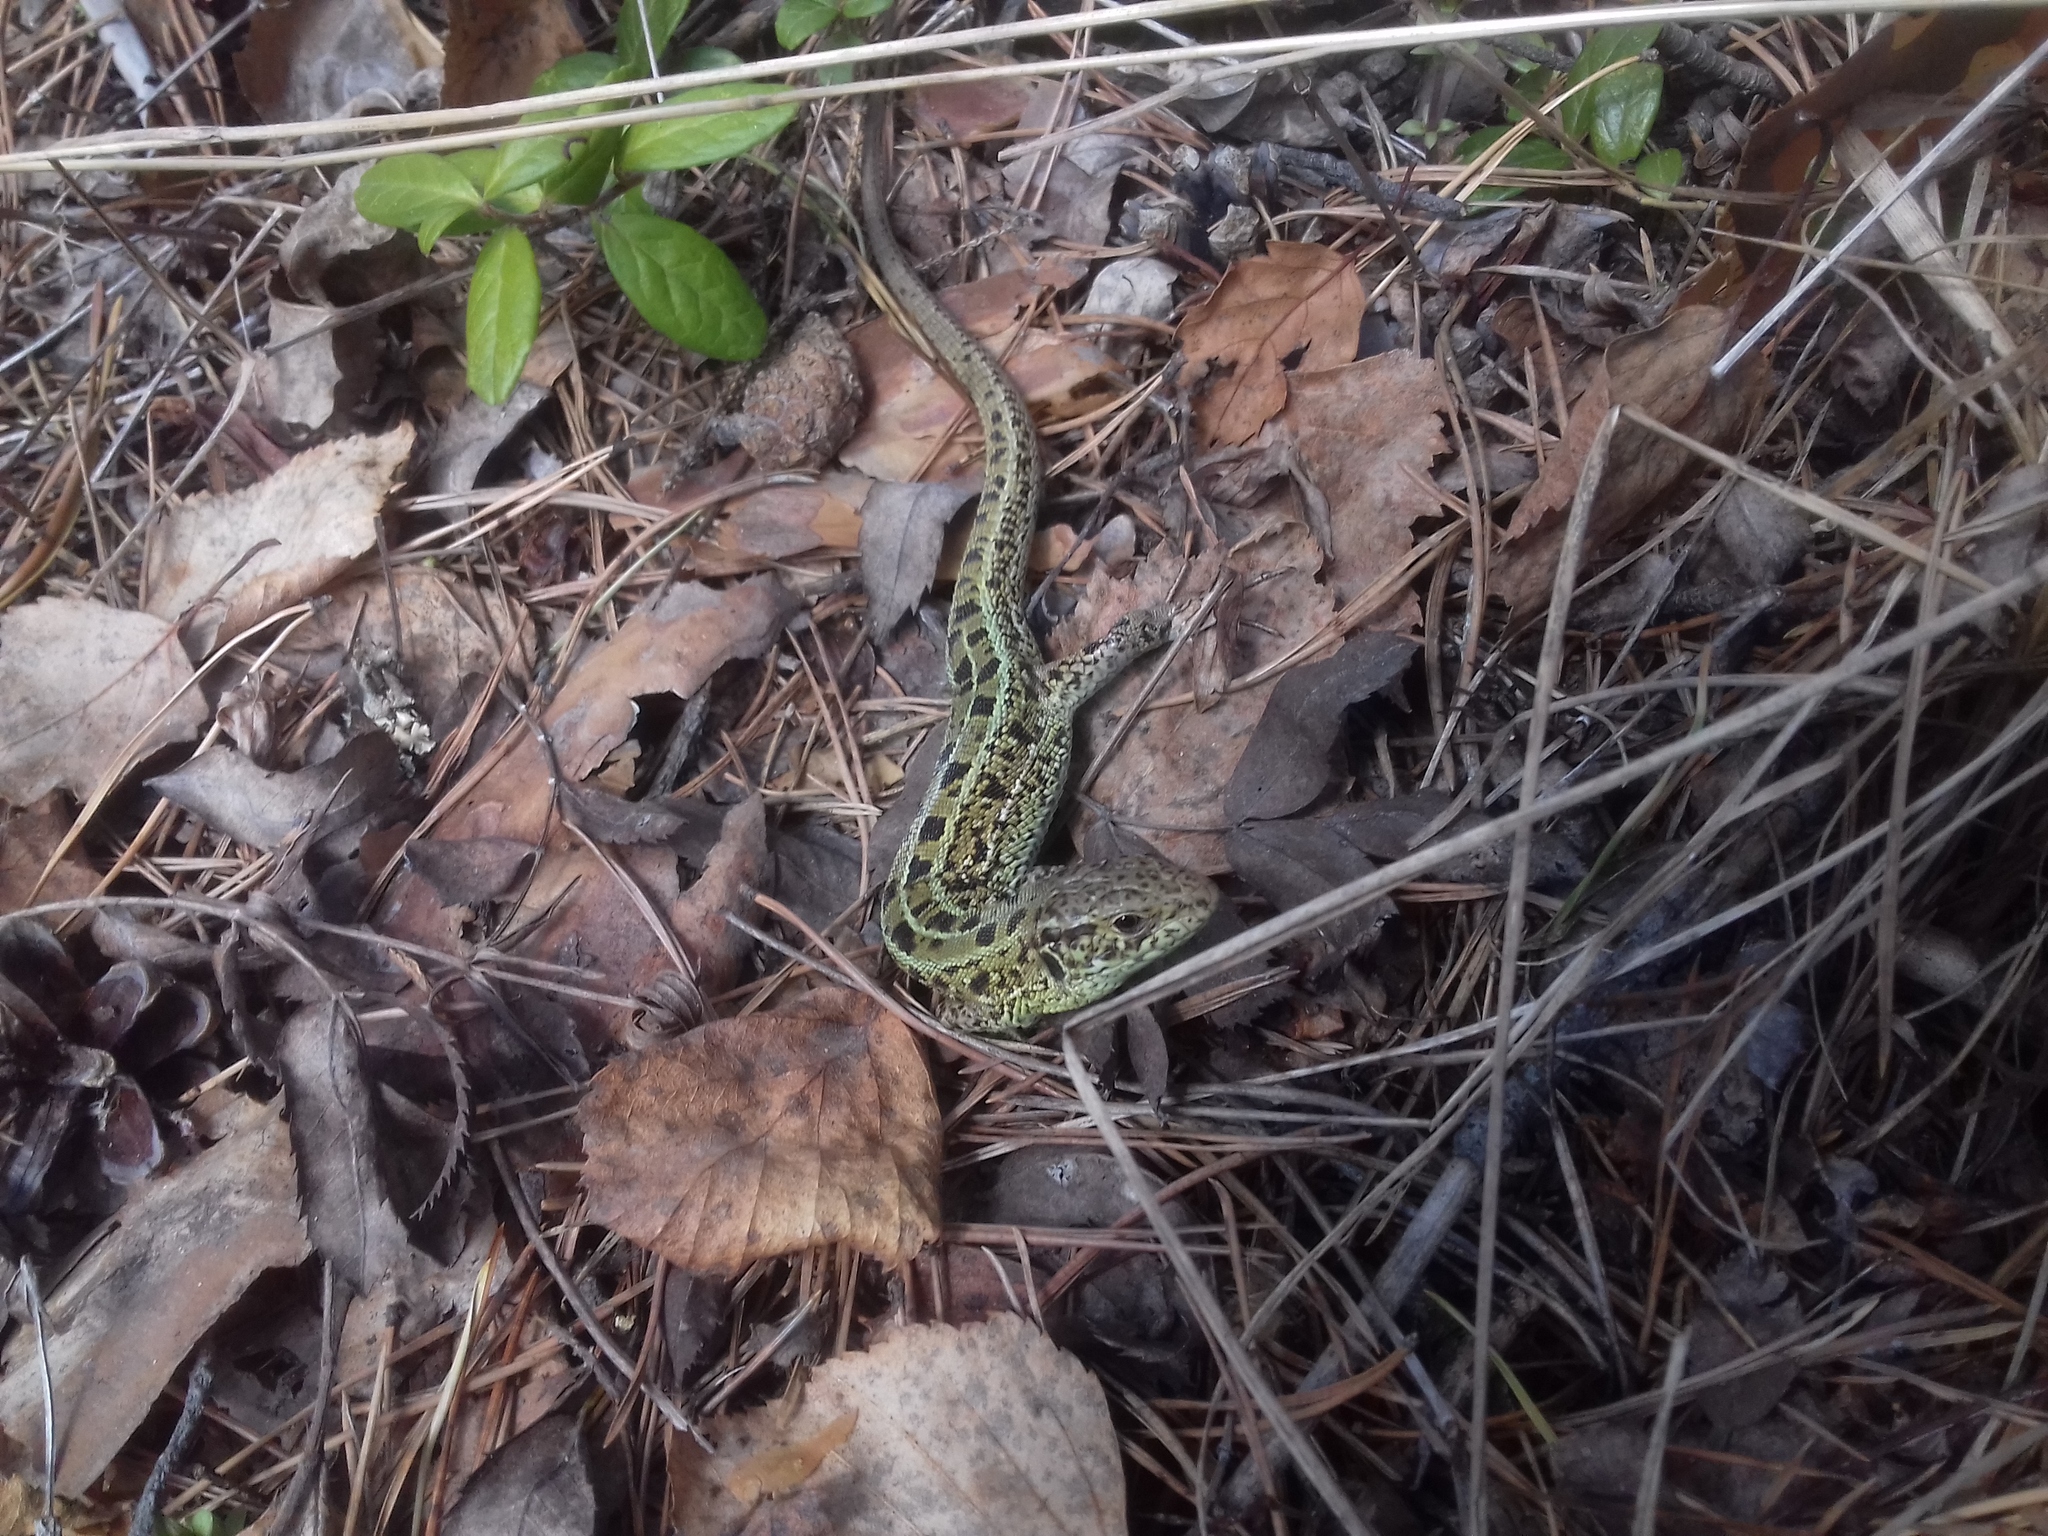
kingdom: Animalia
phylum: Chordata
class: Squamata
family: Lacertidae
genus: Lacerta
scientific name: Lacerta agilis
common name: Sand lizard
